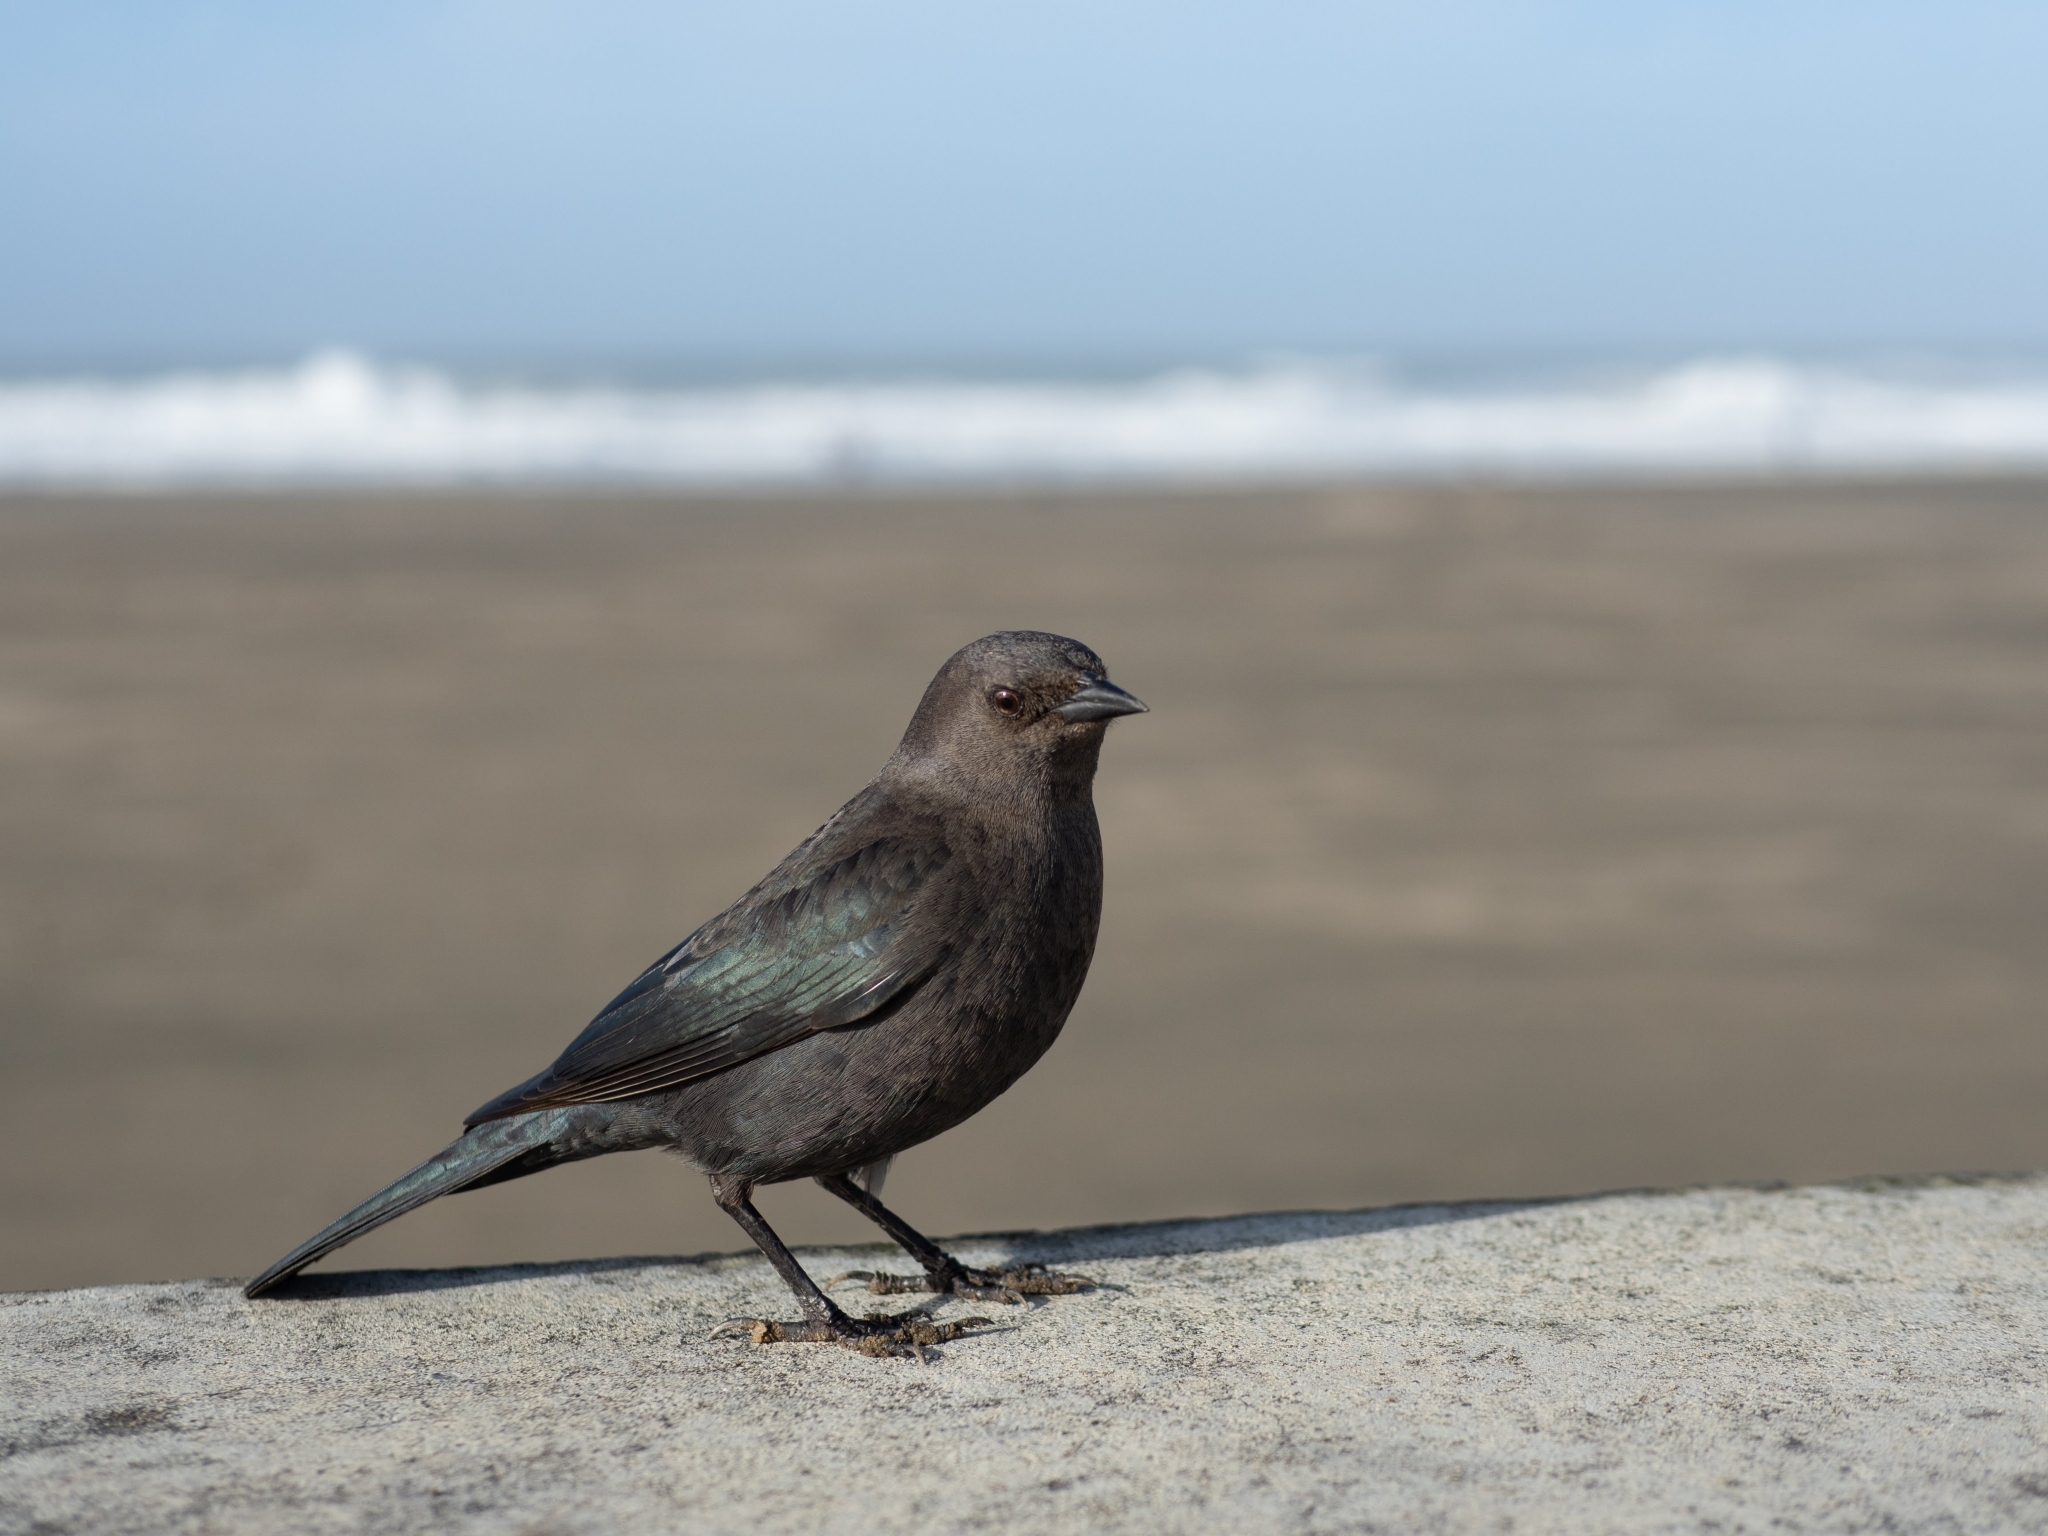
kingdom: Animalia
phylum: Chordata
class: Aves
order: Passeriformes
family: Icteridae
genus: Euphagus
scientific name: Euphagus cyanocephalus
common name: Brewer's blackbird
